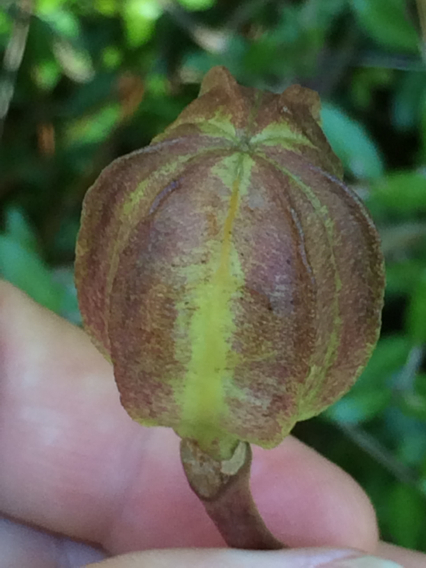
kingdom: Plantae
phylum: Tracheophyta
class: Liliopsida
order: Liliales
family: Liliaceae
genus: Lilium
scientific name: Lilium michauxii
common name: Carolina lily
